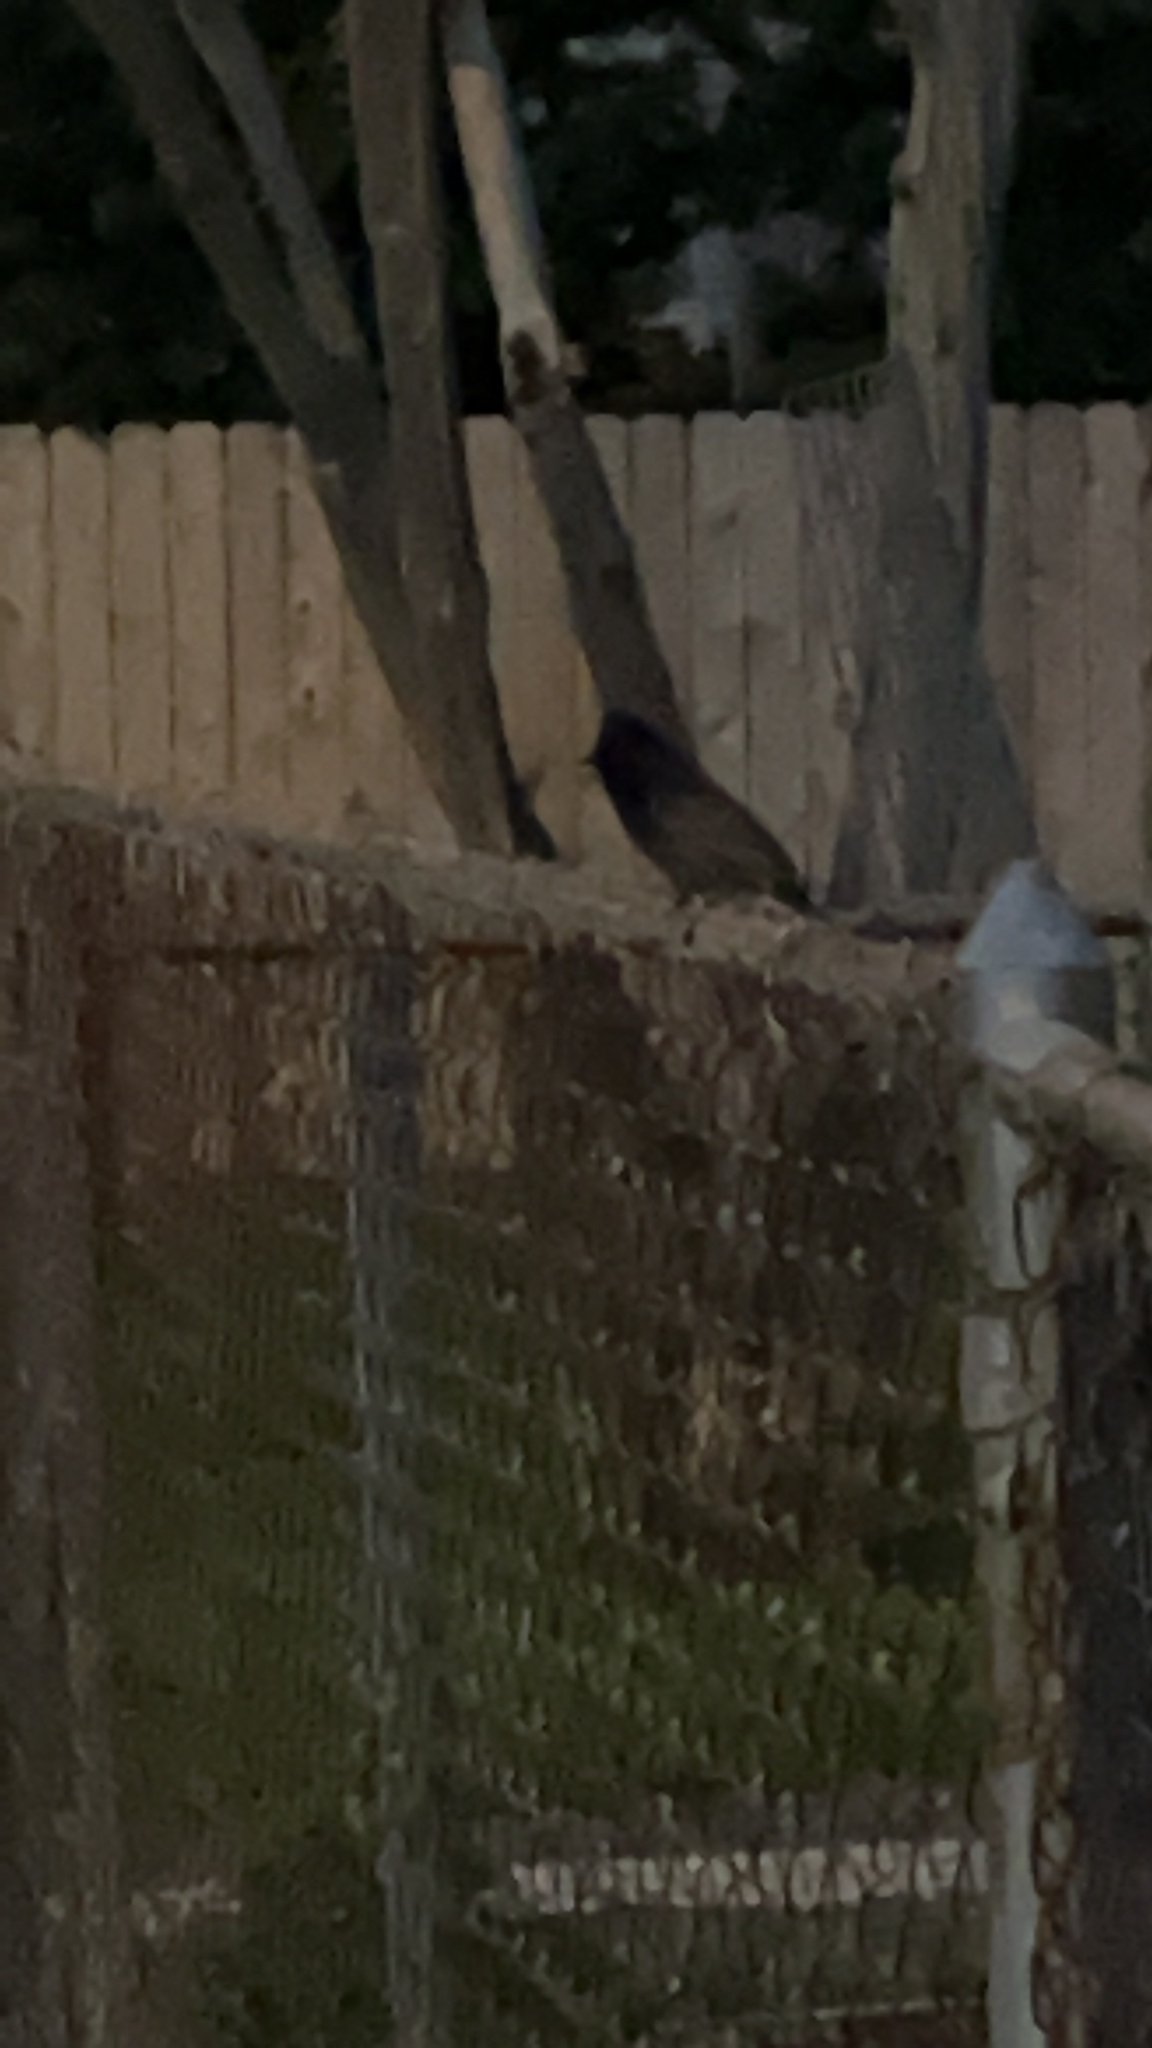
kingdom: Animalia
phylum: Chordata
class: Aves
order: Passeriformes
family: Pycnonotidae
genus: Pycnonotus
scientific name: Pycnonotus cafer
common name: Red-vented bulbul
